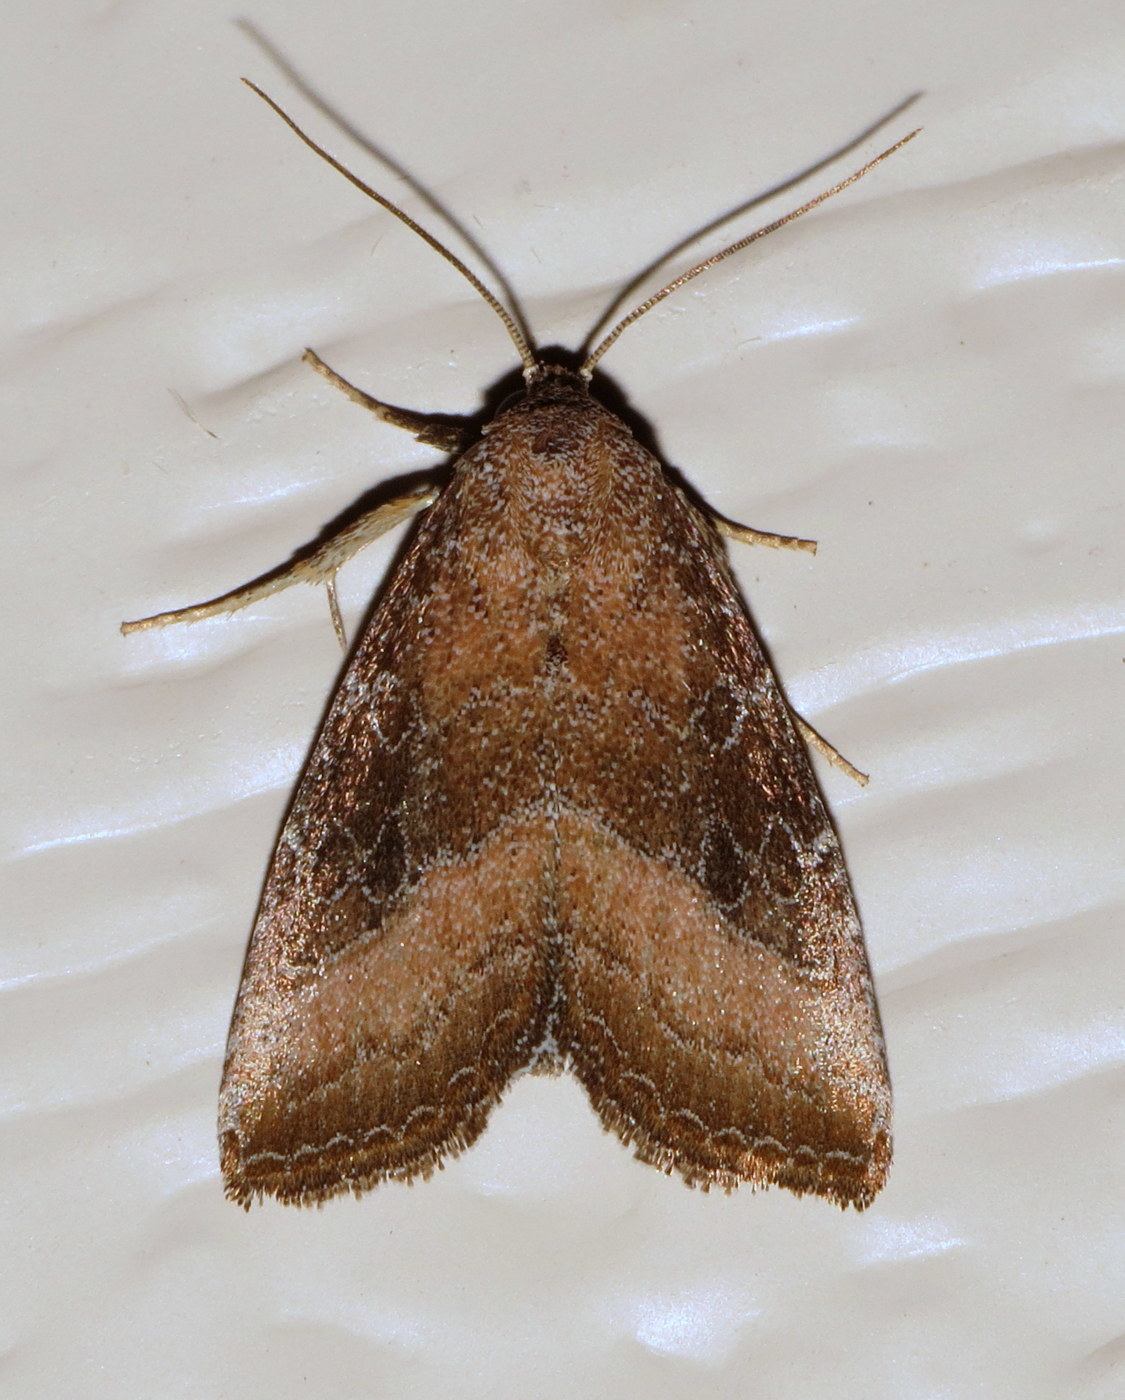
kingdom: Animalia
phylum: Arthropoda
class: Insecta
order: Lepidoptera
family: Noctuidae
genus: Ogdoconta
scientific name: Ogdoconta cinereola
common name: Common pinkband
